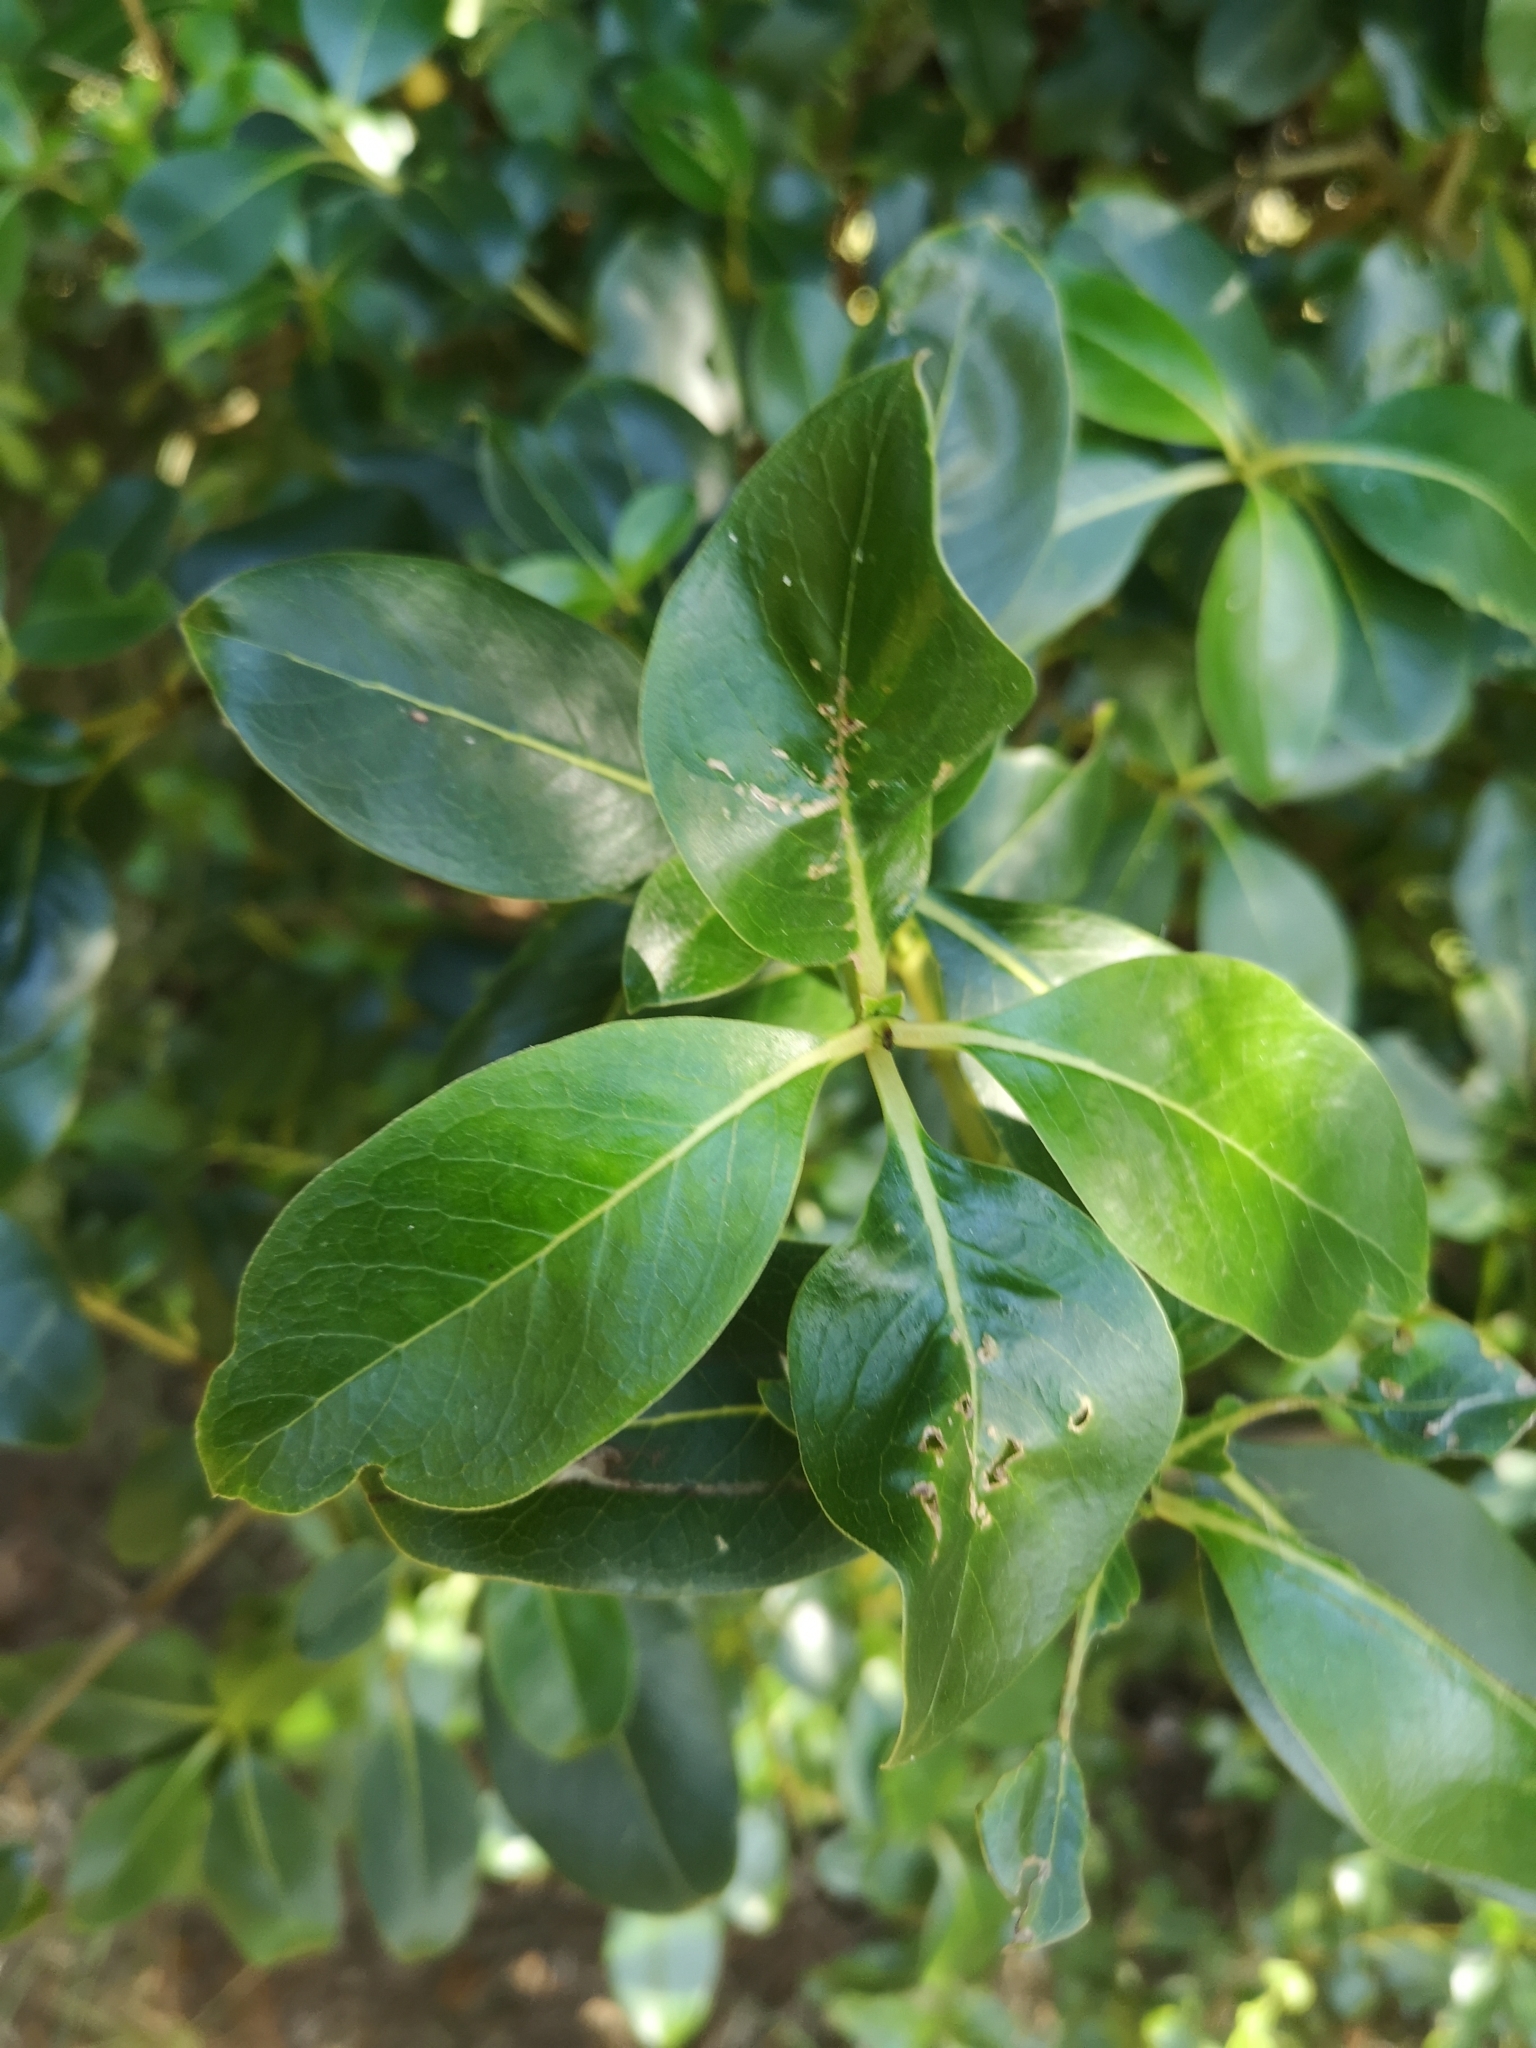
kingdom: Plantae
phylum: Tracheophyta
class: Magnoliopsida
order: Gentianales
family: Rubiaceae
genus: Coprosma
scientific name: Coprosma robusta
